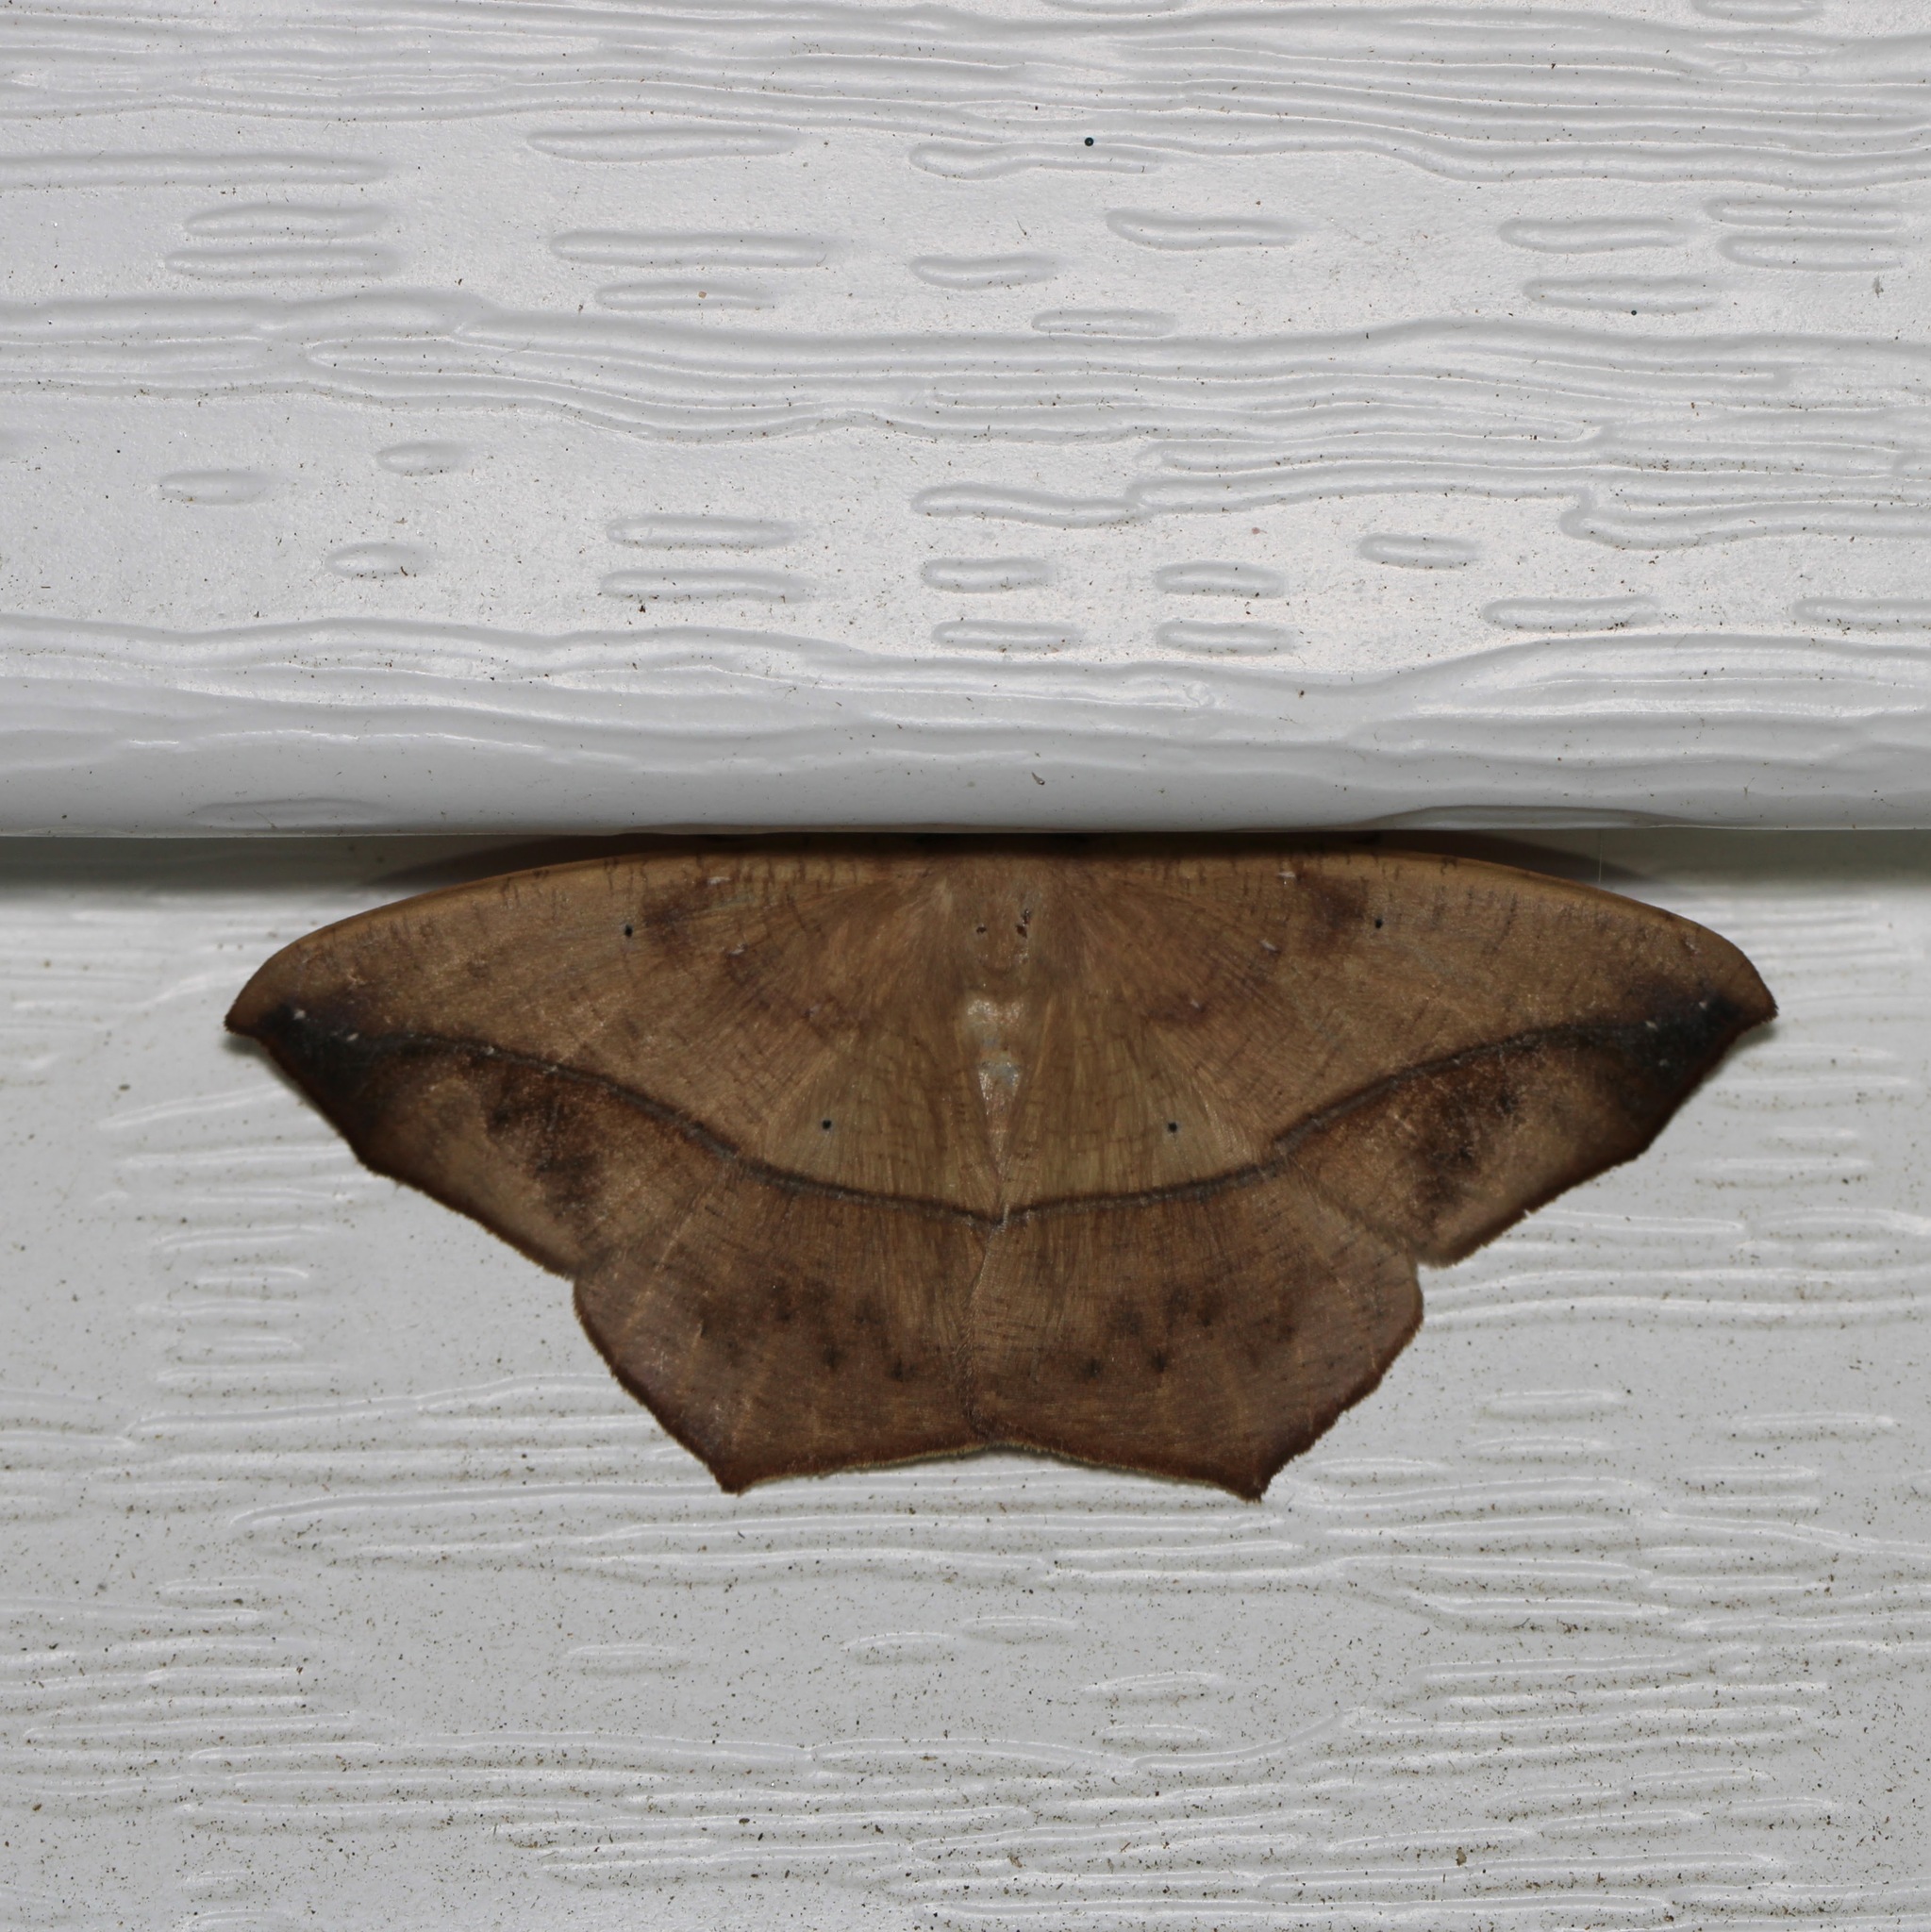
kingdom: Animalia
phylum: Arthropoda
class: Insecta
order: Lepidoptera
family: Geometridae
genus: Prochoerodes
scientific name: Prochoerodes lineola
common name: Large maple spanworm
